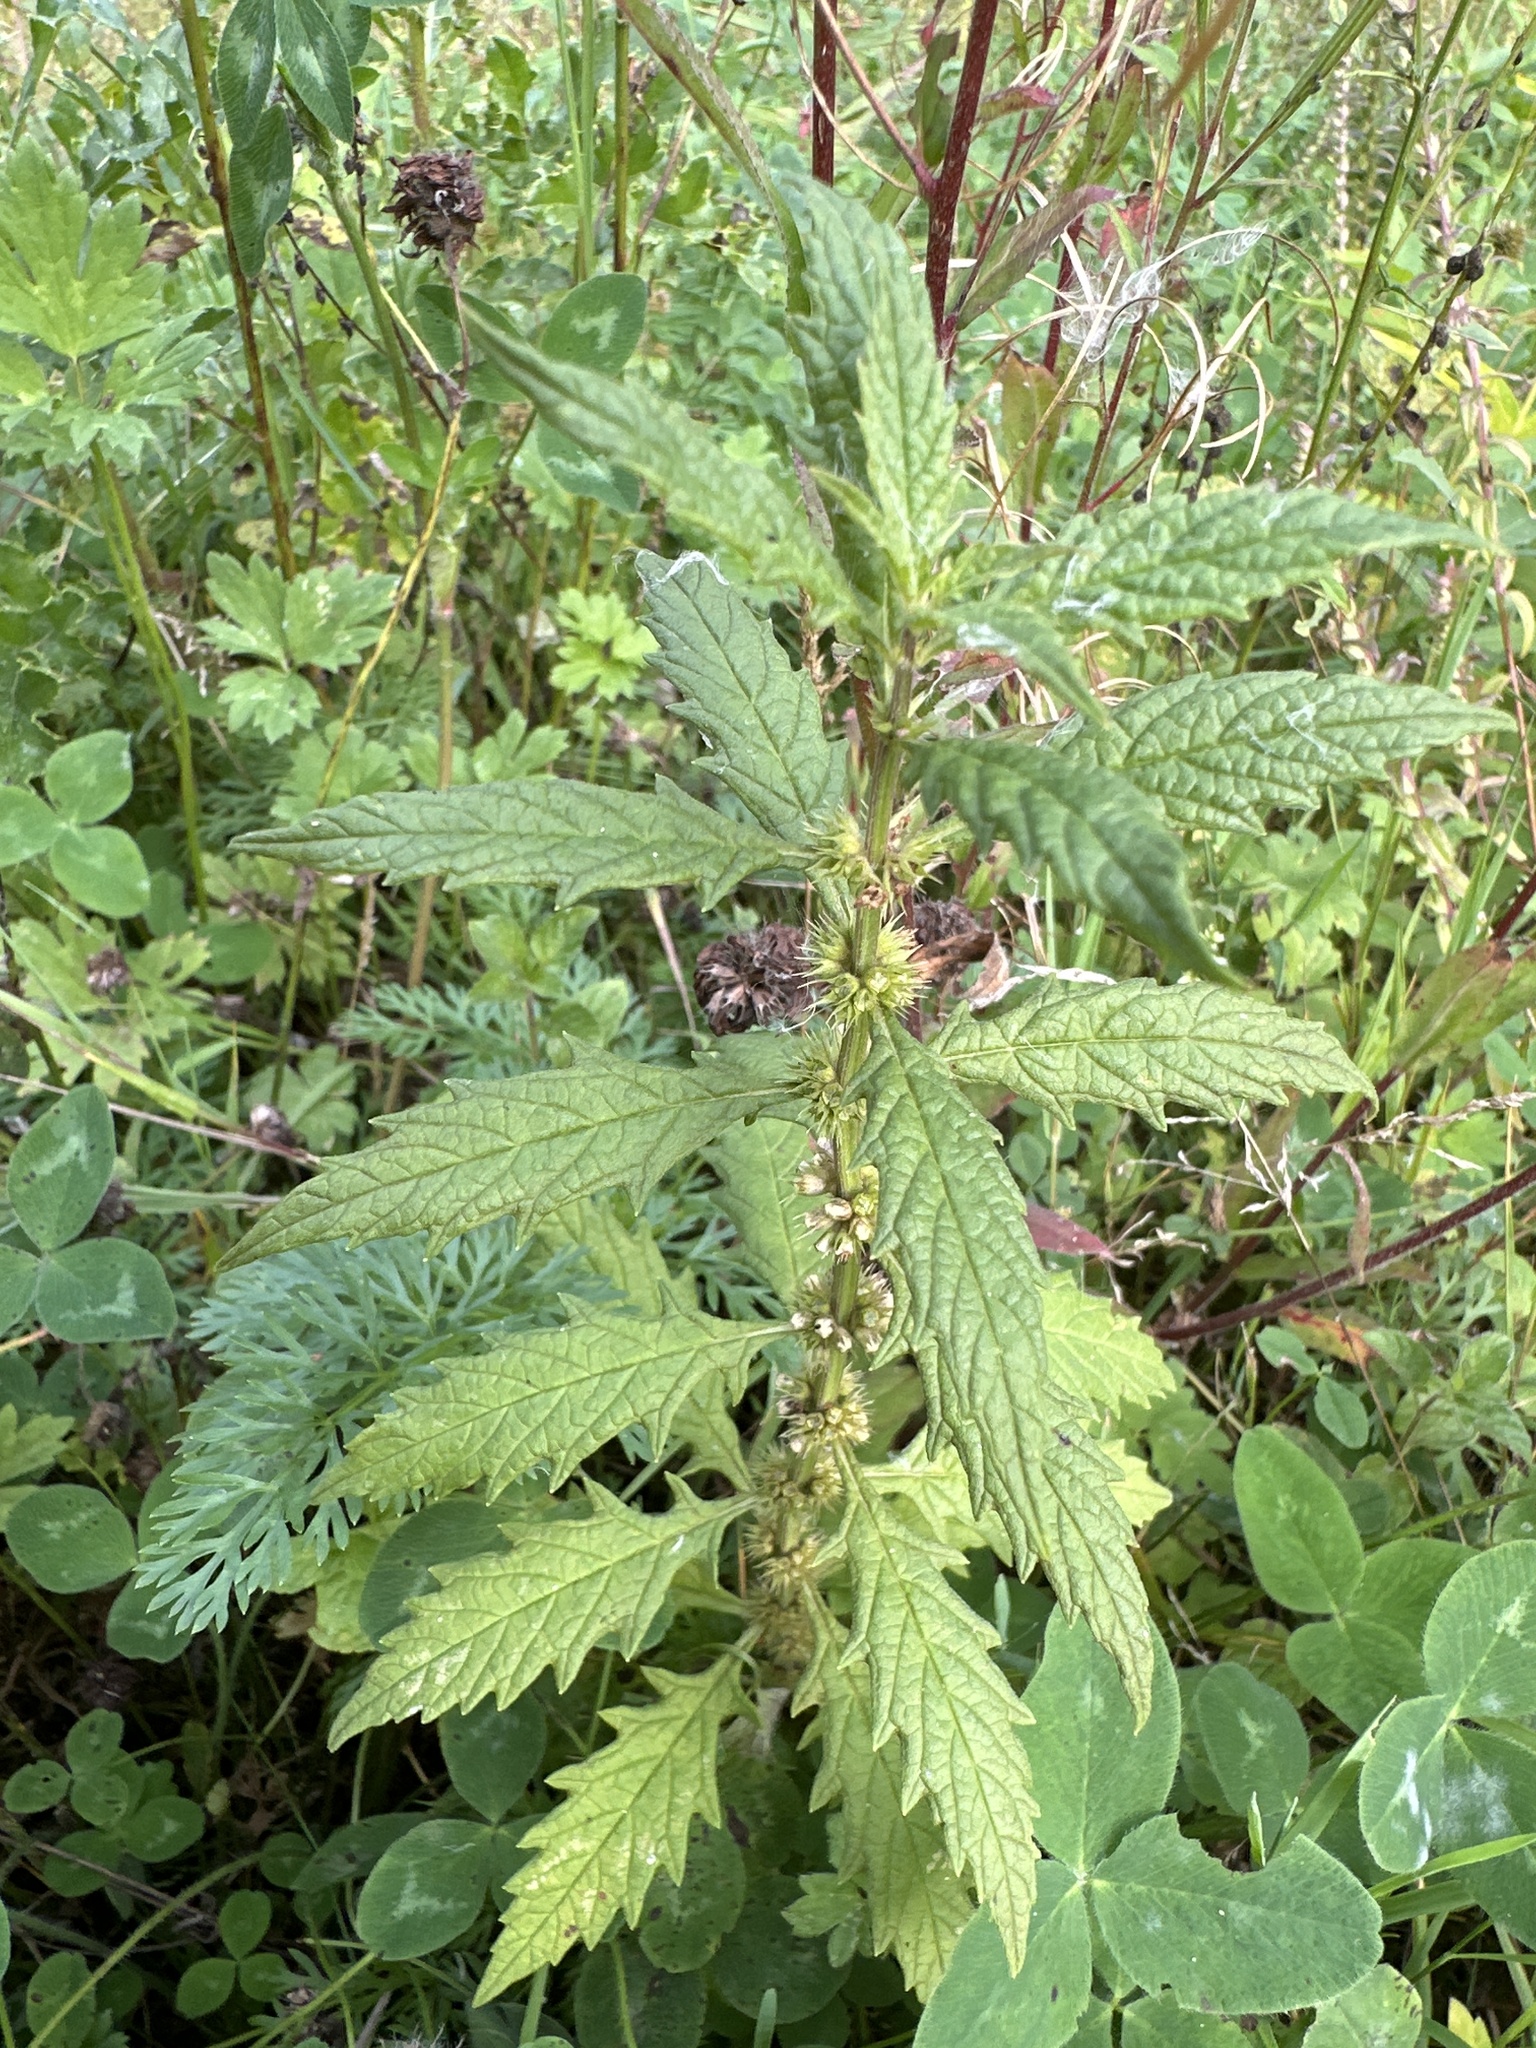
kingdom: Plantae
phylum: Tracheophyta
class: Magnoliopsida
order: Lamiales
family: Lamiaceae
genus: Lycopus
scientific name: Lycopus europaeus
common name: European bugleweed
